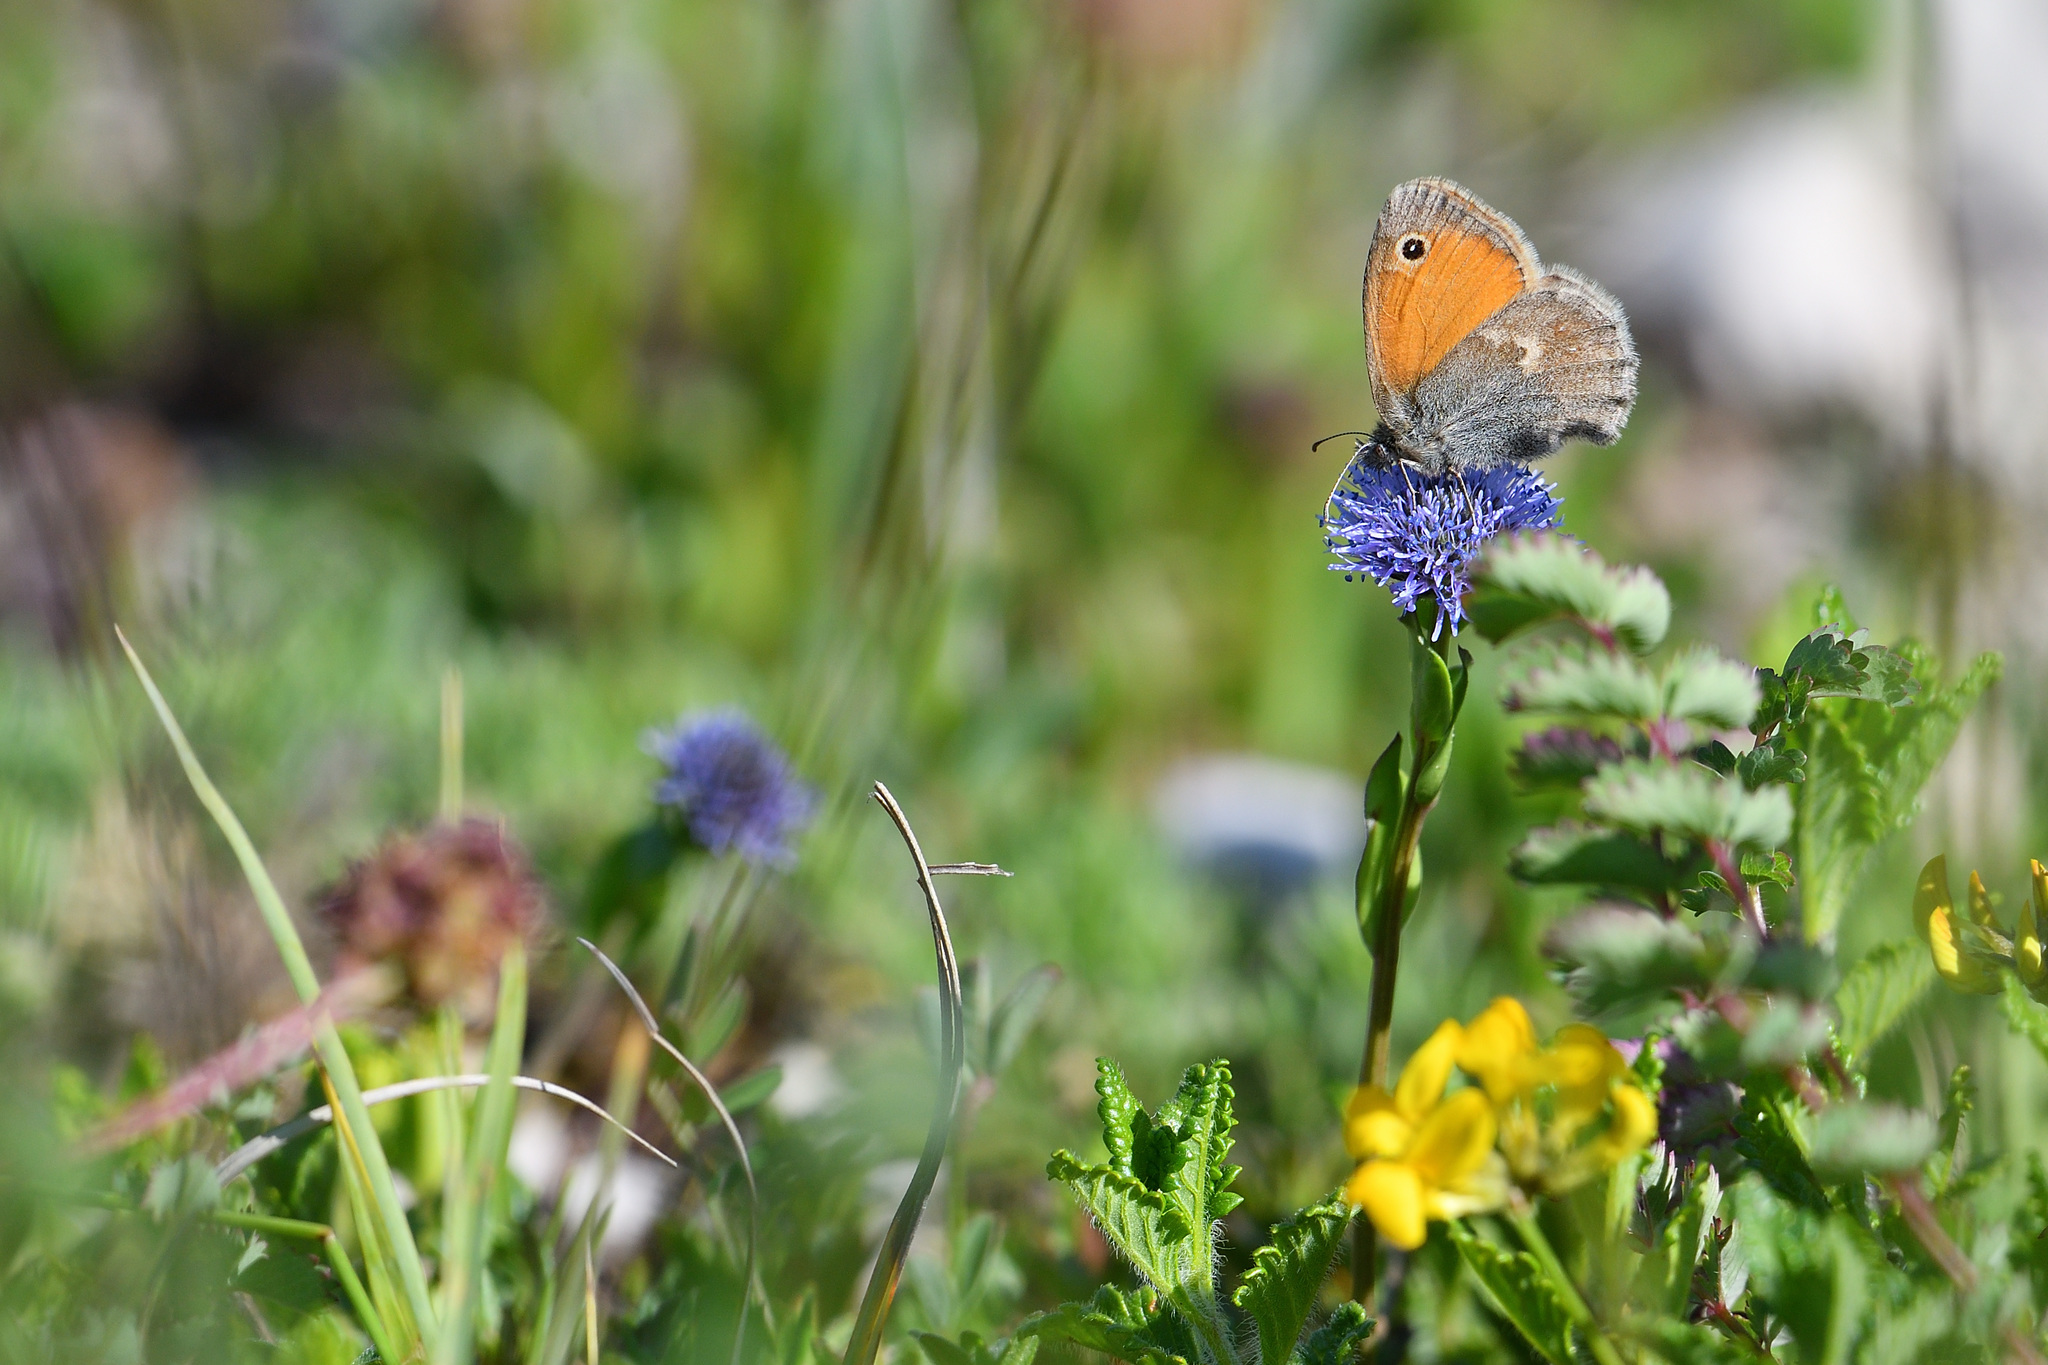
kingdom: Animalia
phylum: Arthropoda
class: Insecta
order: Lepidoptera
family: Nymphalidae
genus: Coenonympha
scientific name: Coenonympha pamphilus
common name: Small heath
